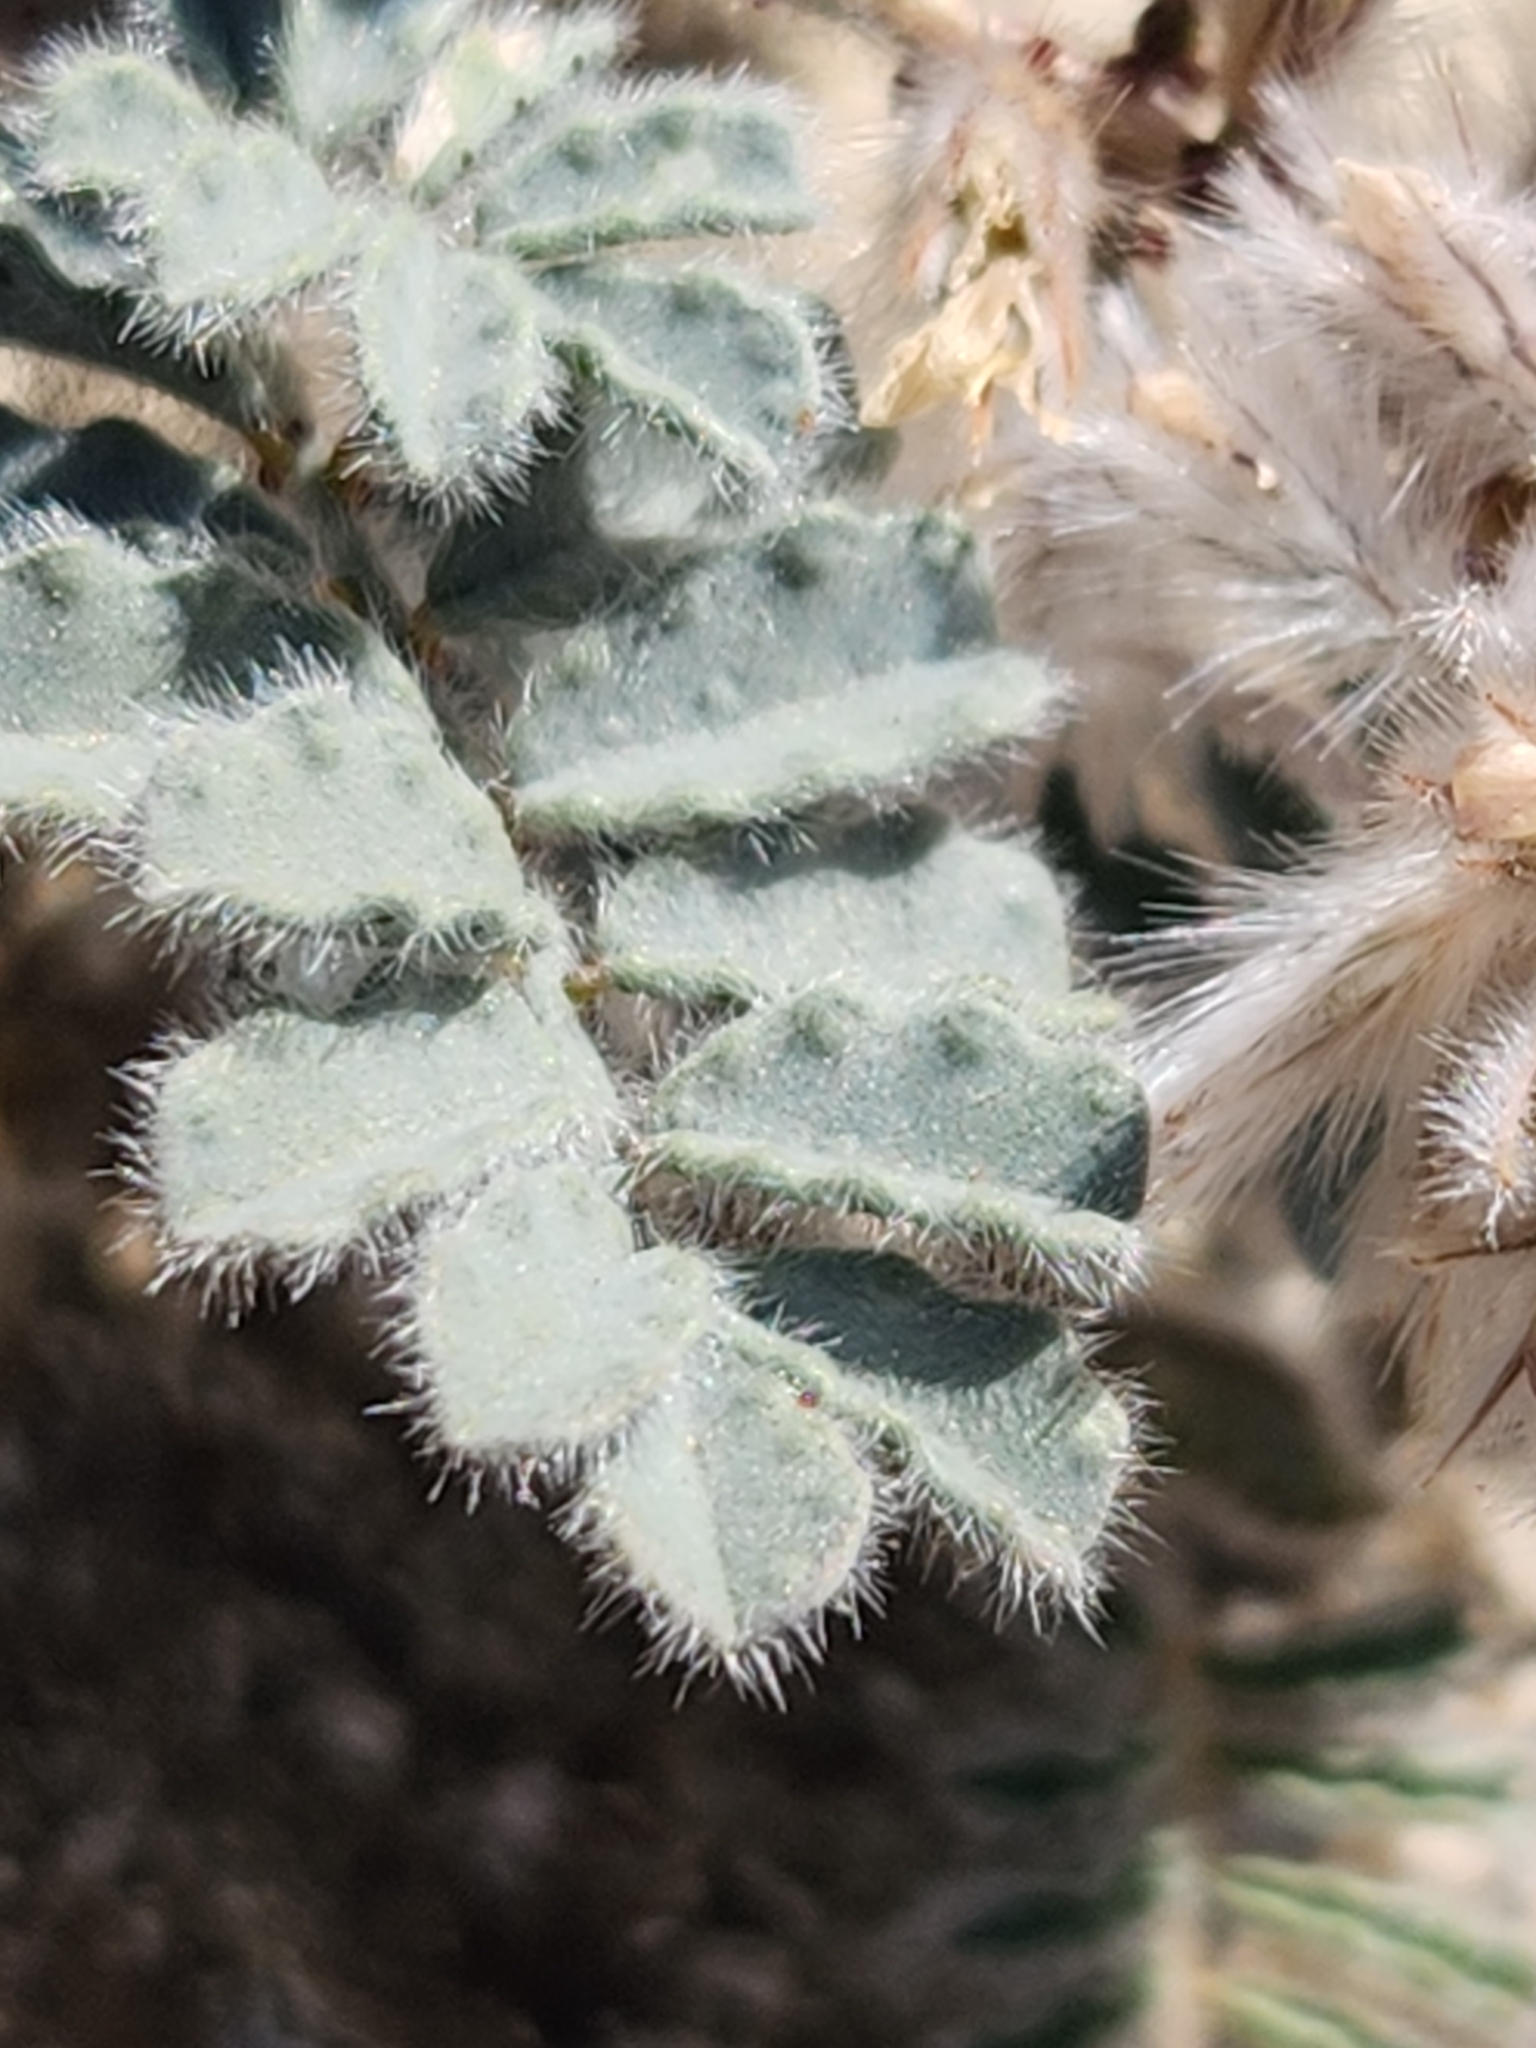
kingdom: Plantae
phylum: Tracheophyta
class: Magnoliopsida
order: Fabales
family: Fabaceae
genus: Dalea
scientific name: Dalea mollissima
